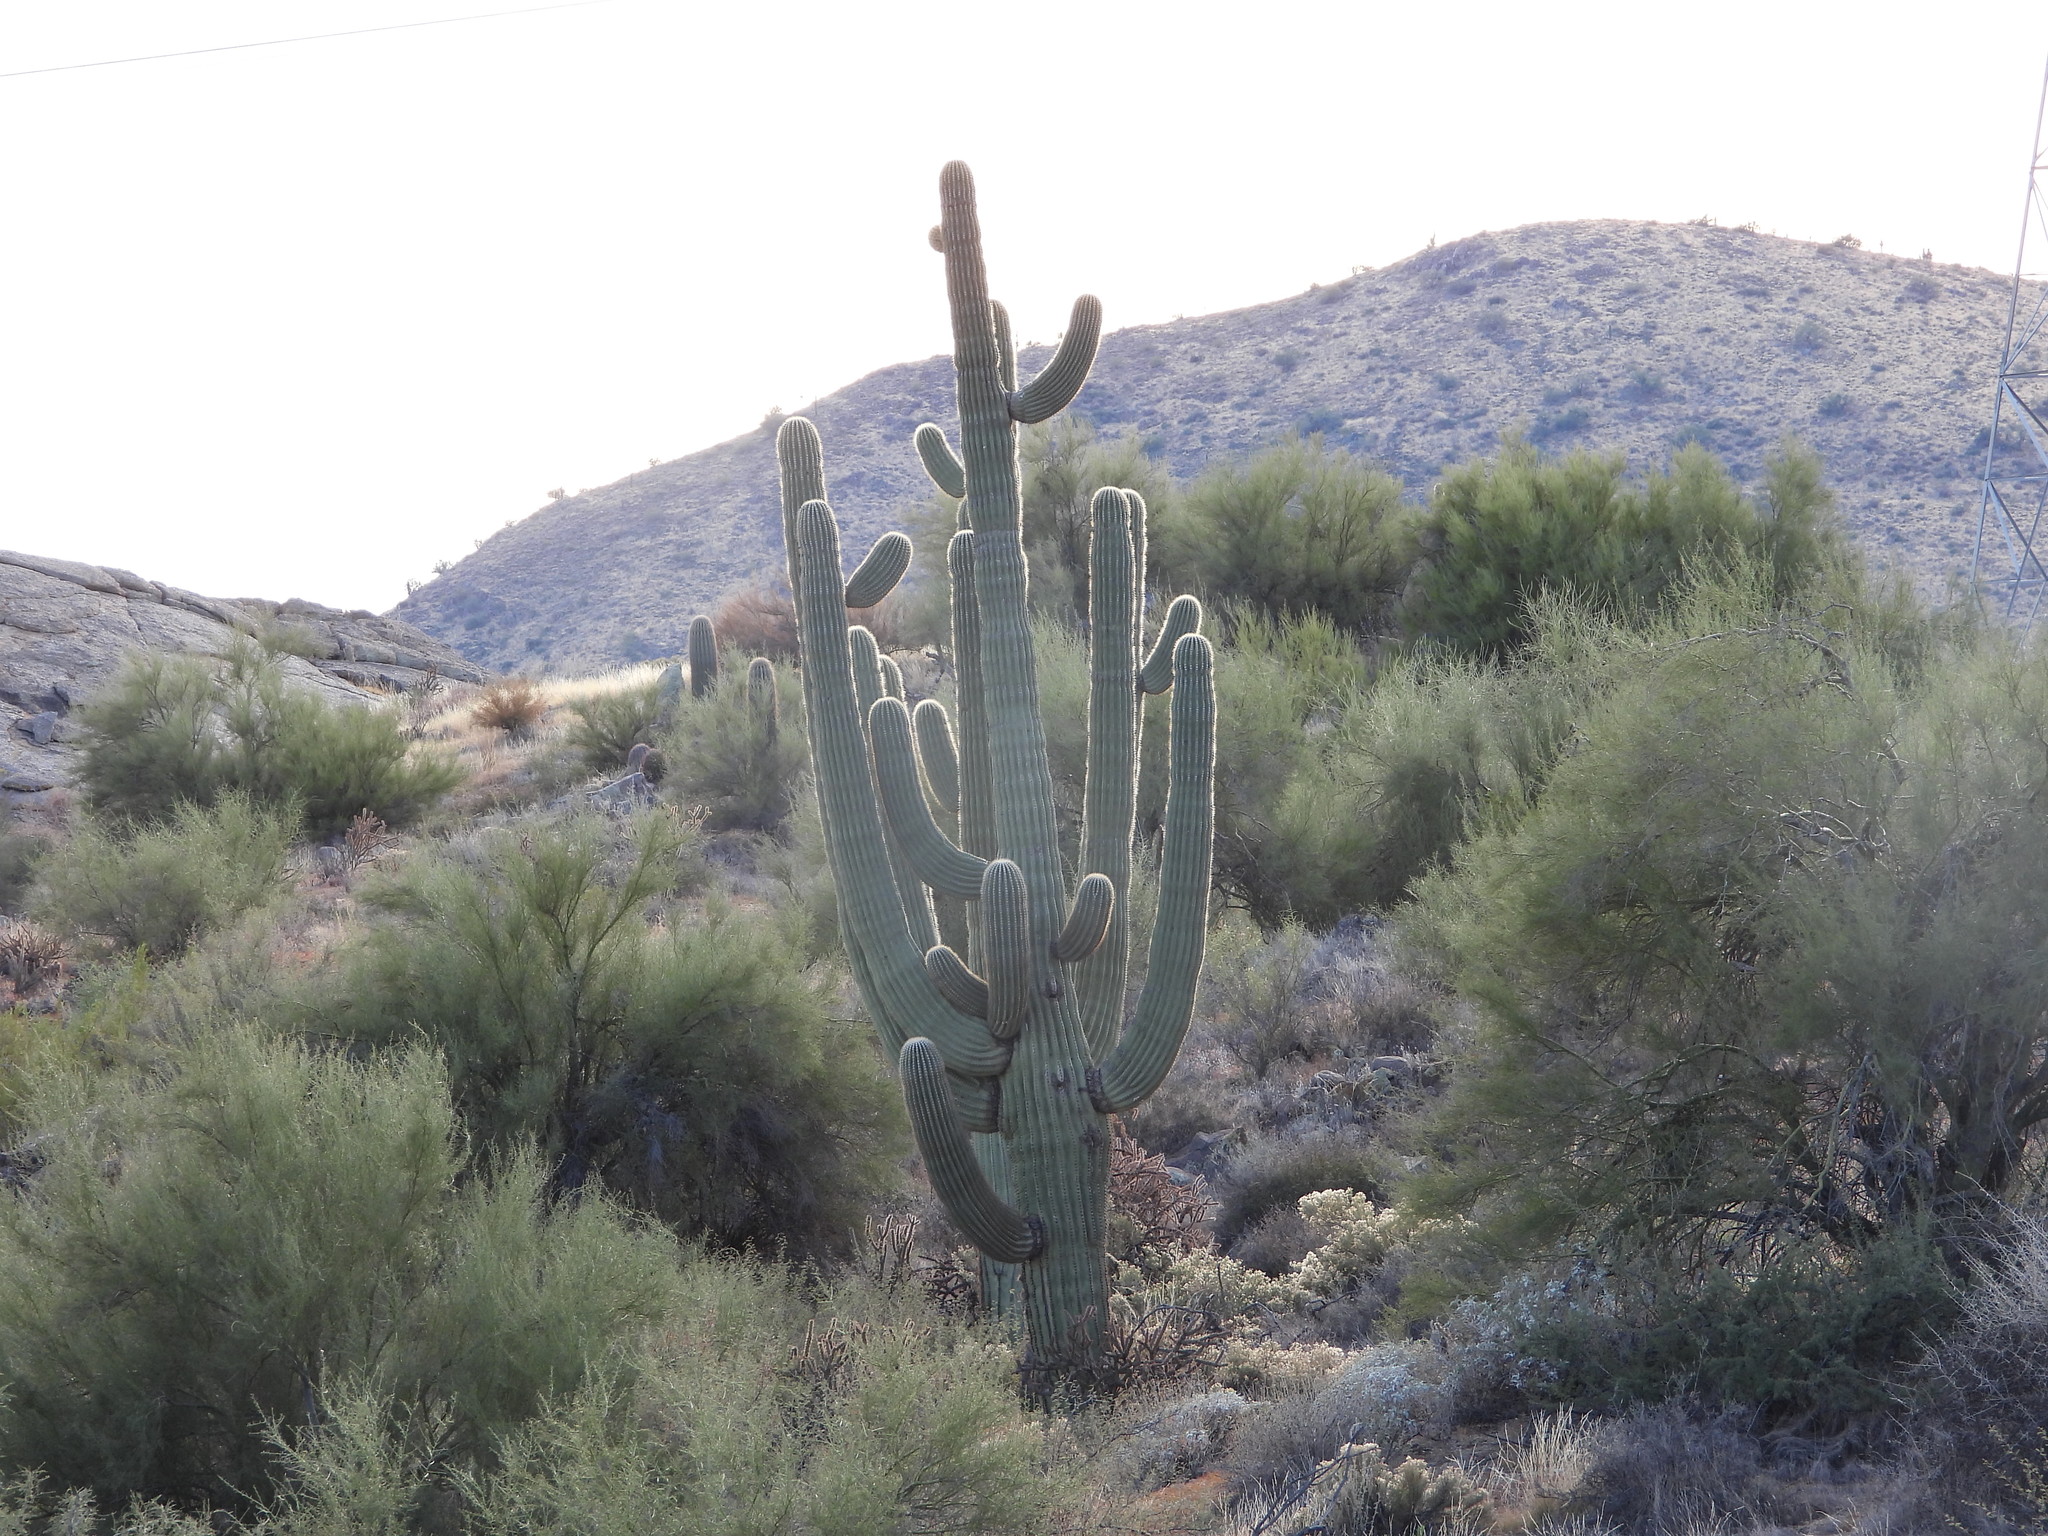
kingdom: Plantae
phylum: Tracheophyta
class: Magnoliopsida
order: Caryophyllales
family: Cactaceae
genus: Carnegiea
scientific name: Carnegiea gigantea
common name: Saguaro
